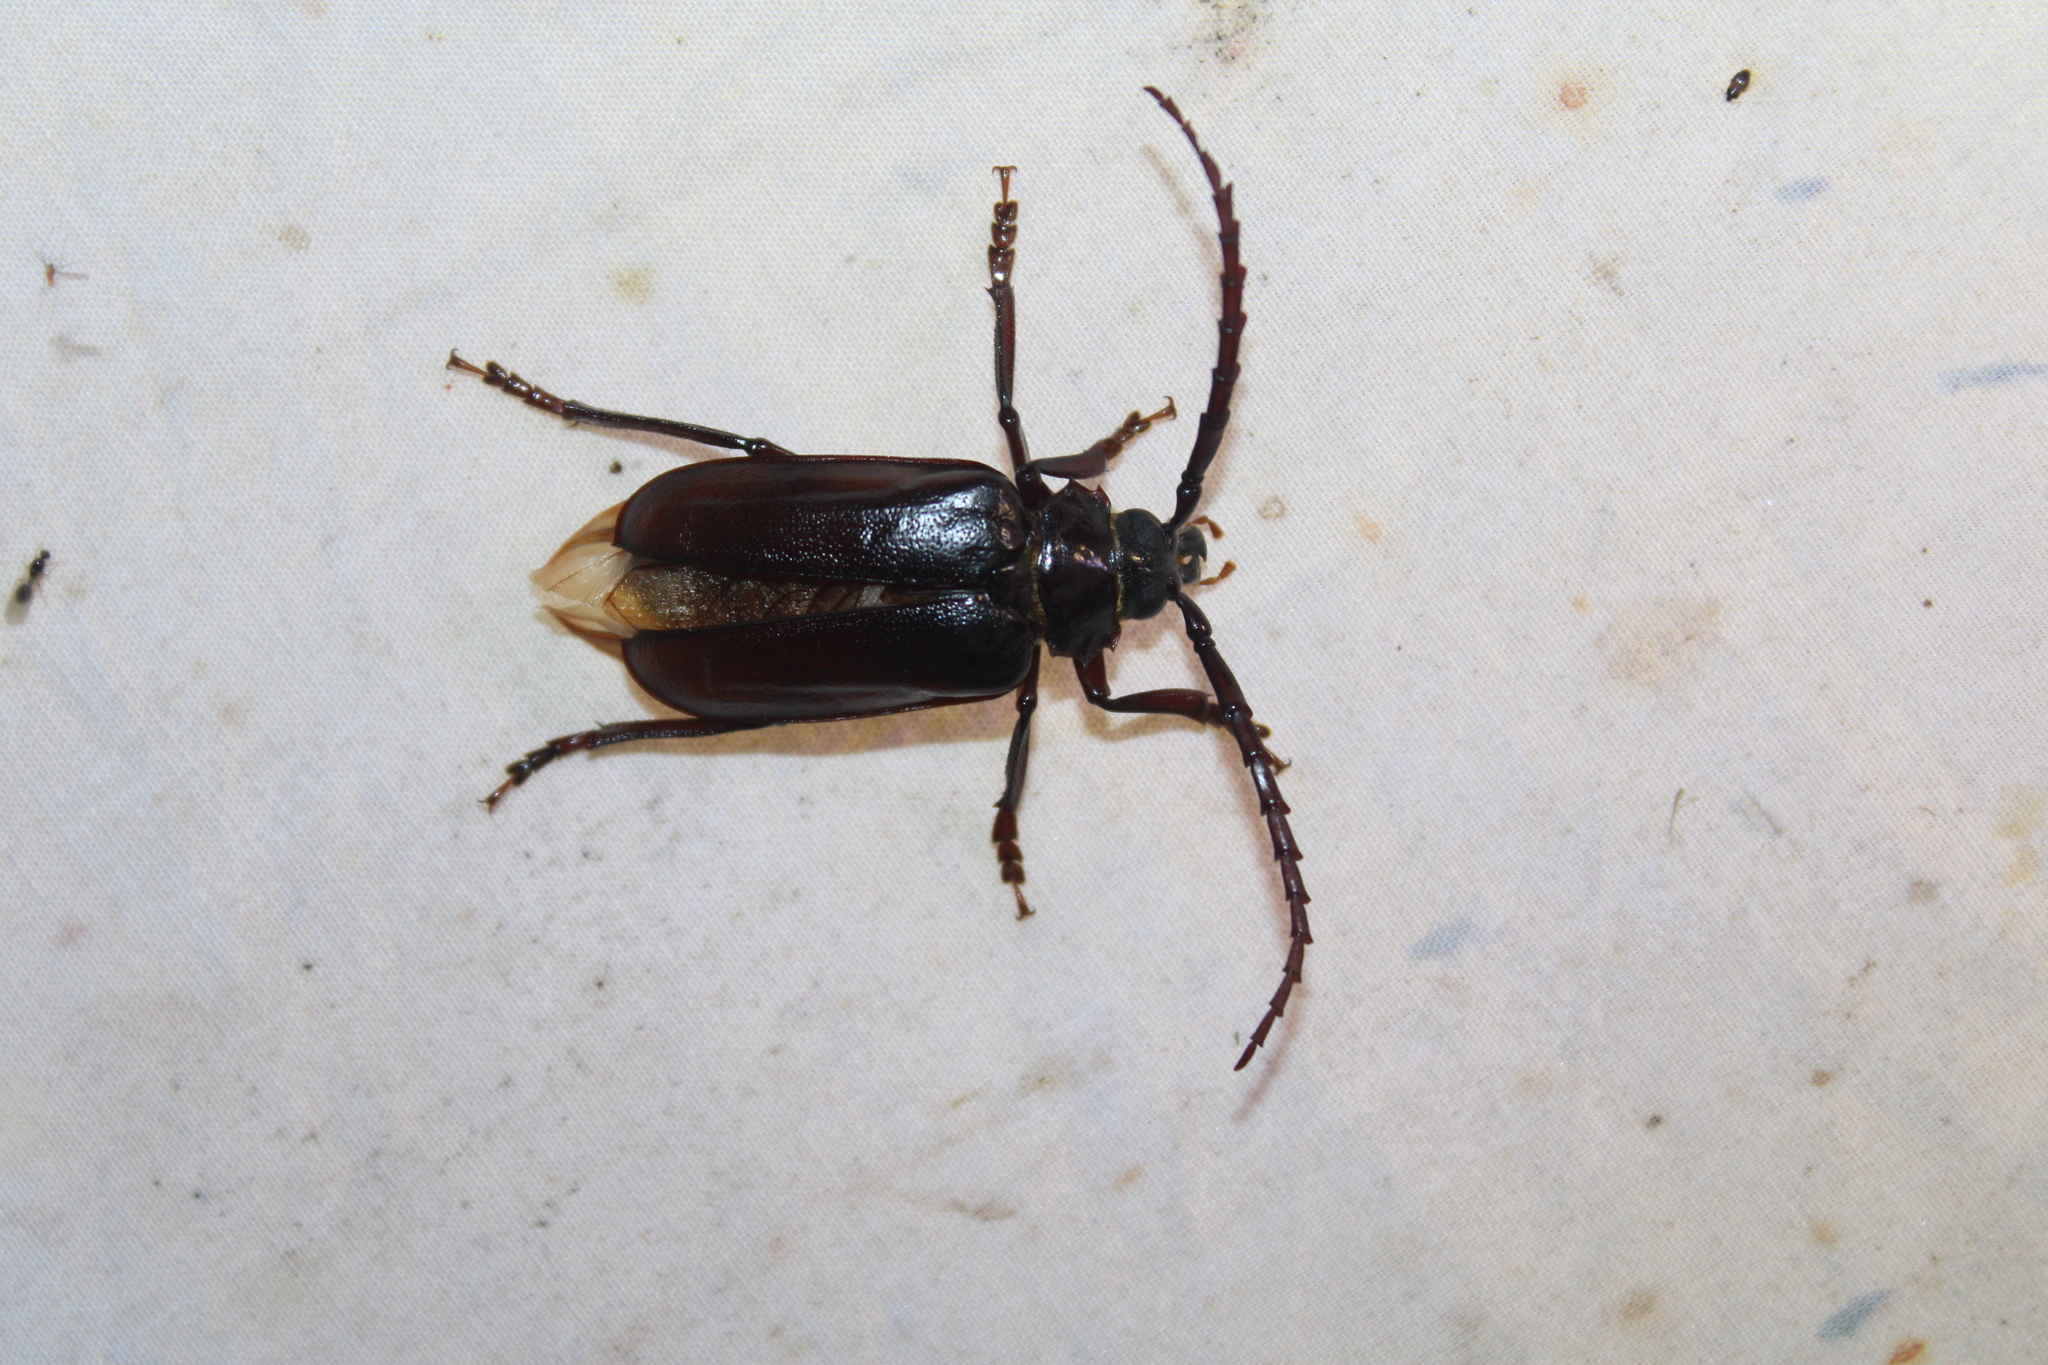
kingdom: Animalia
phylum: Arthropoda
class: Insecta
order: Coleoptera
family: Cerambycidae
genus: Prionus
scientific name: Prionus pocularis
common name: Tooth-necked longhorn beetle
